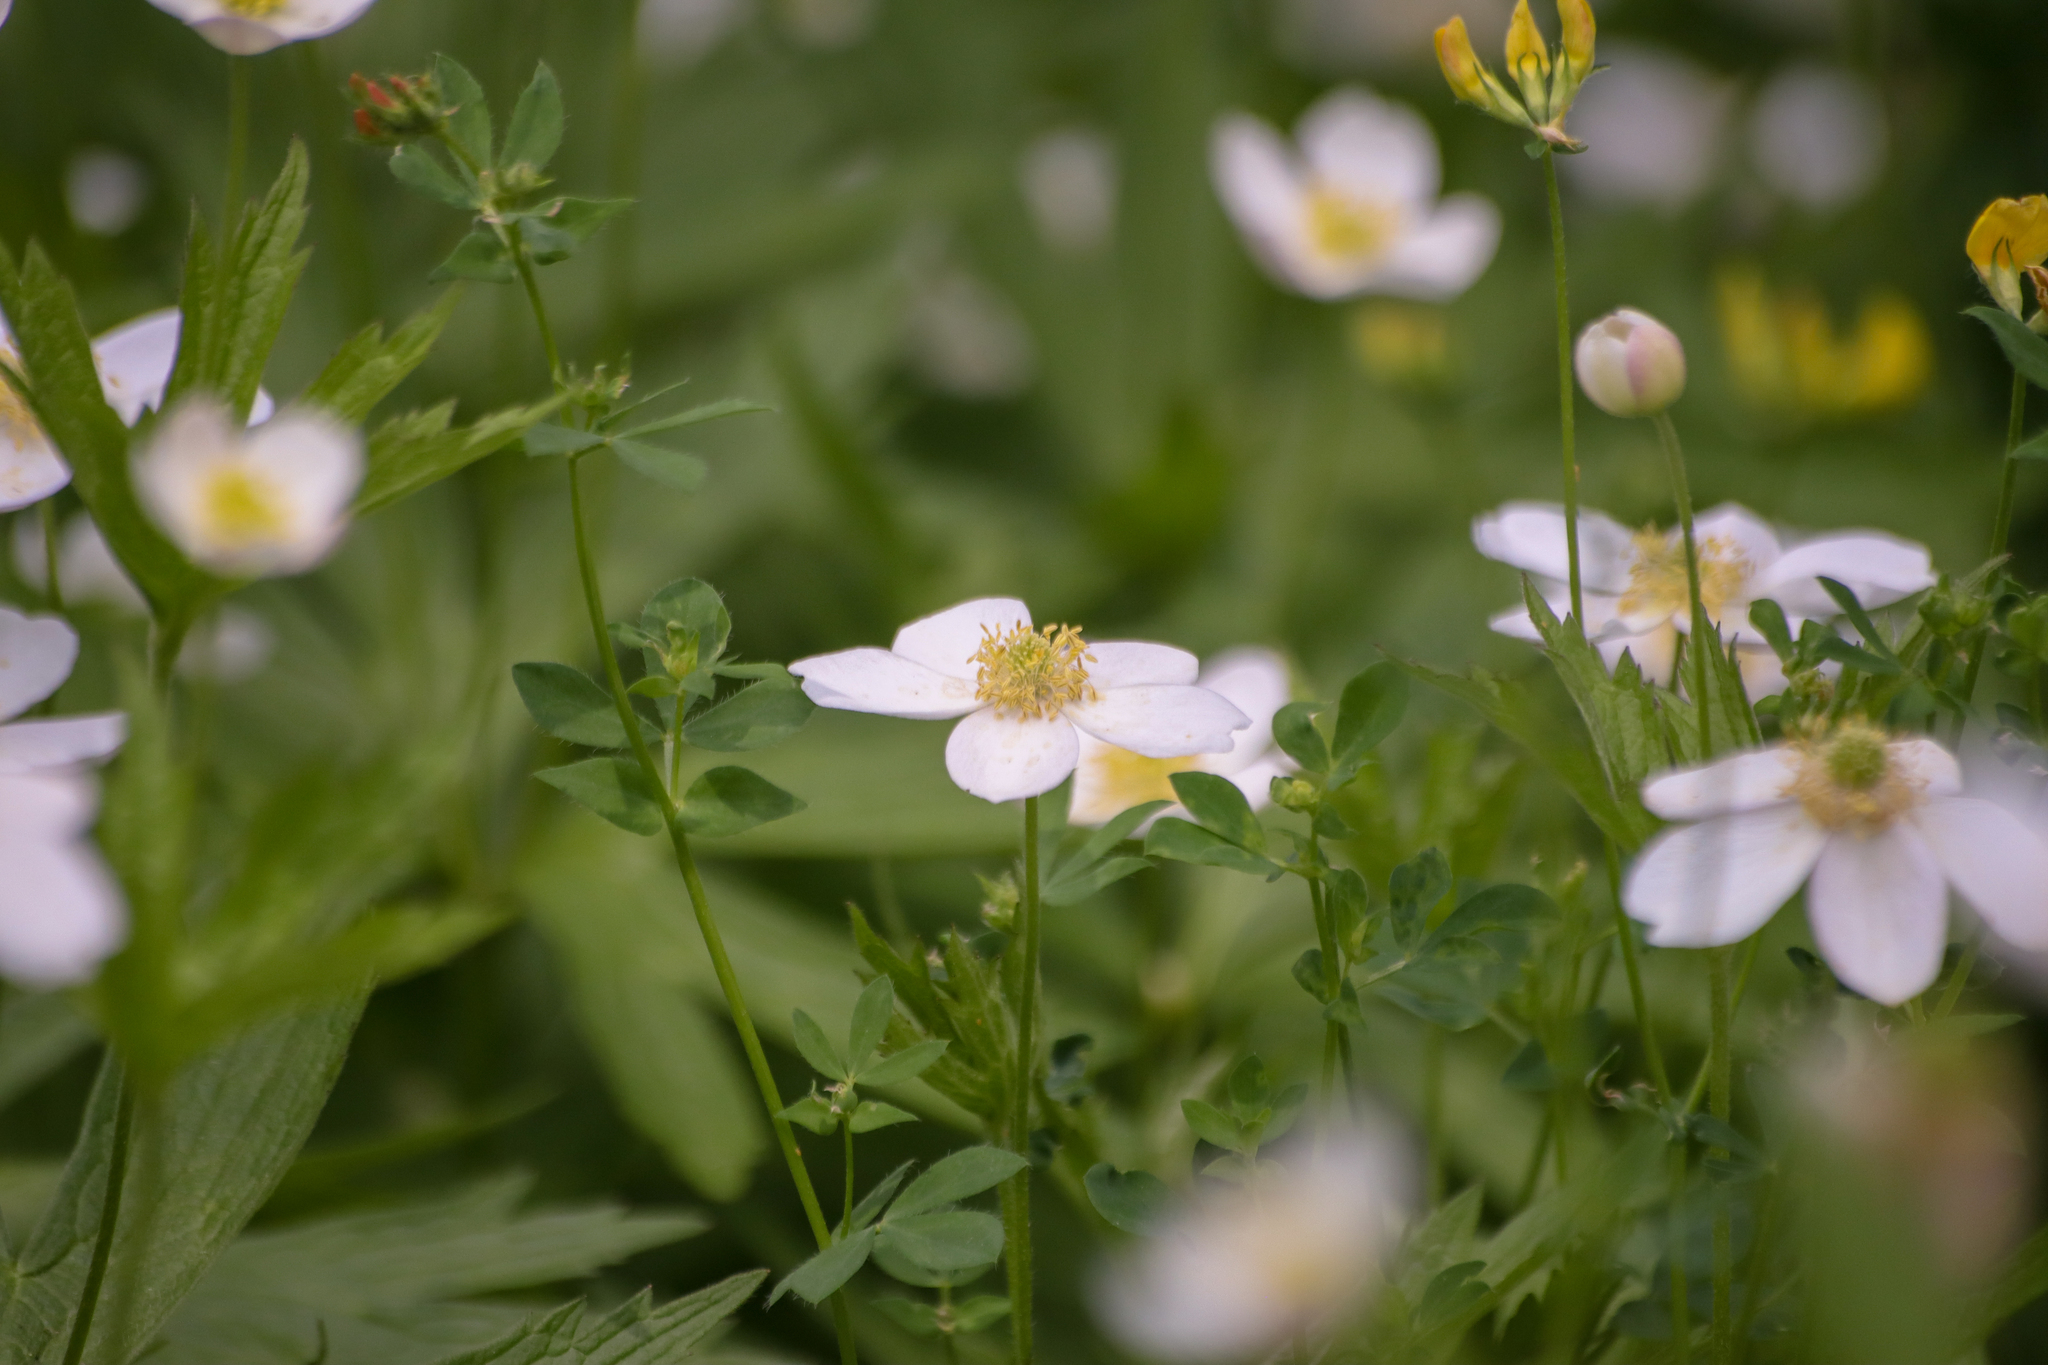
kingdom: Plantae
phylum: Tracheophyta
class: Magnoliopsida
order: Ranunculales
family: Ranunculaceae
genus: Anemonastrum
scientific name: Anemonastrum canadense
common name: Canada anemone
